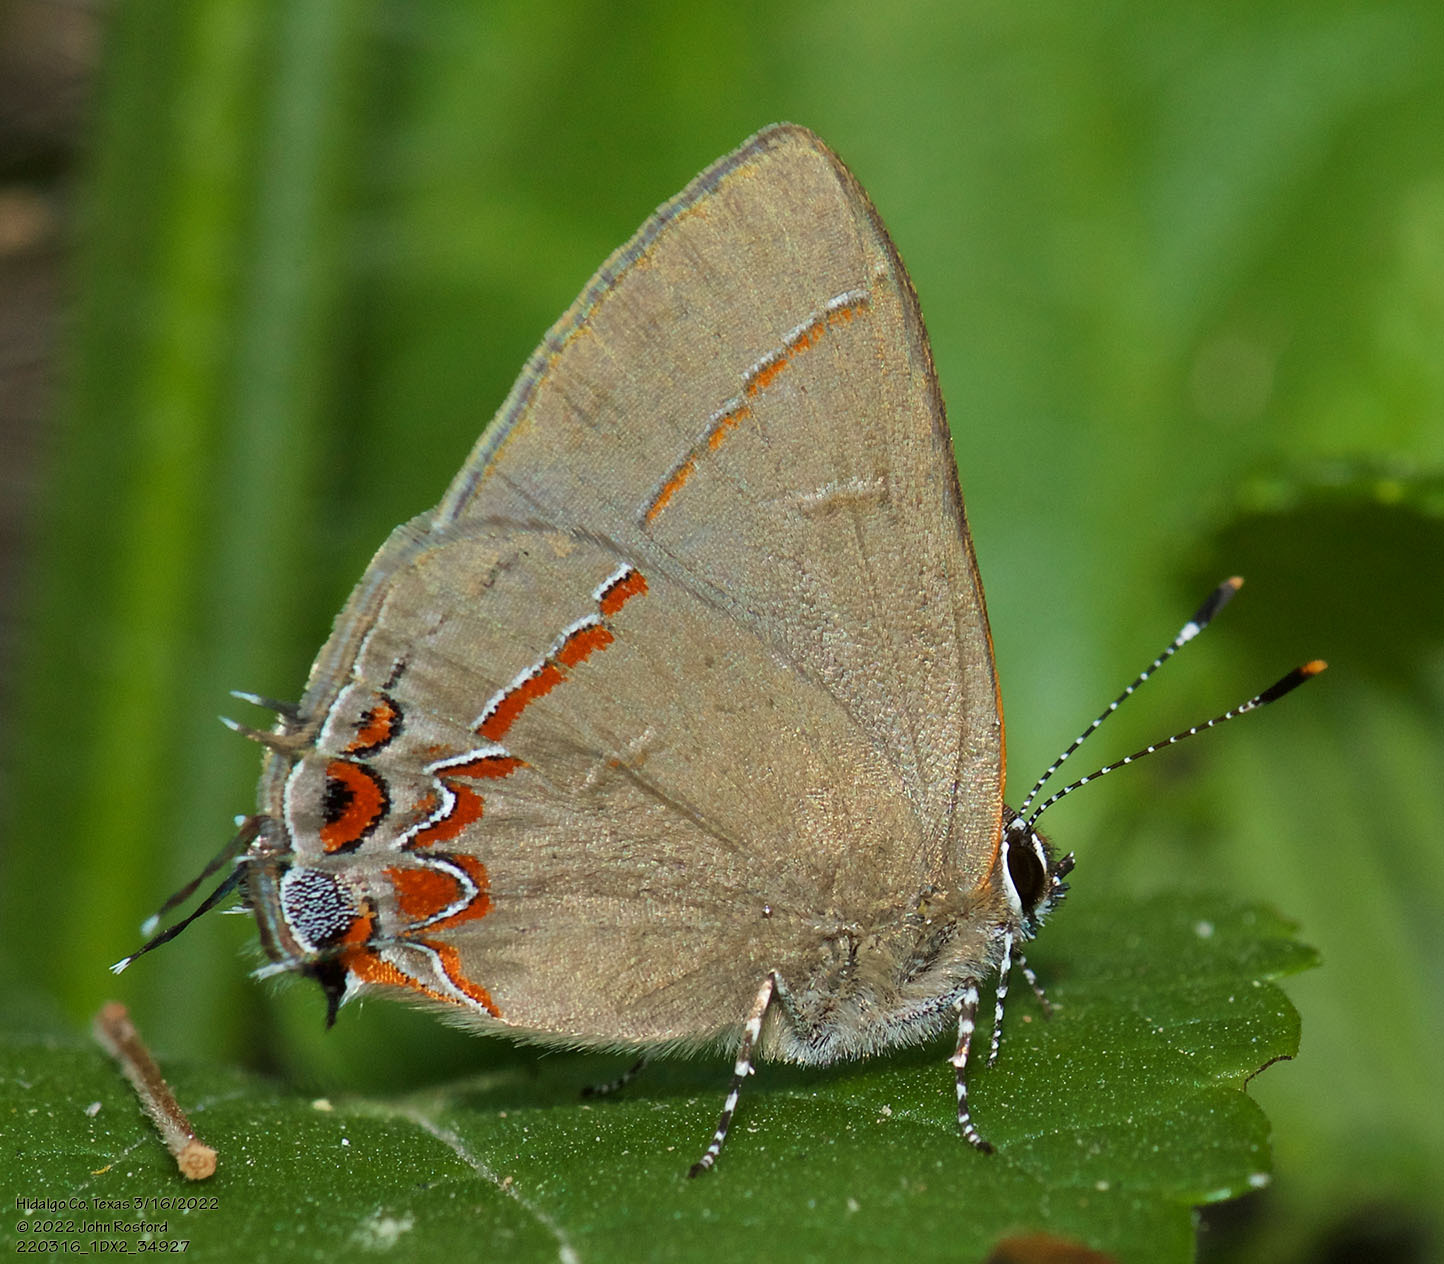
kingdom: Animalia
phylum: Arthropoda
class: Insecta
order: Lepidoptera
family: Lycaenidae
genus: Calycopis
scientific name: Calycopis isobeon
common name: Dusky-blue groundstreak
